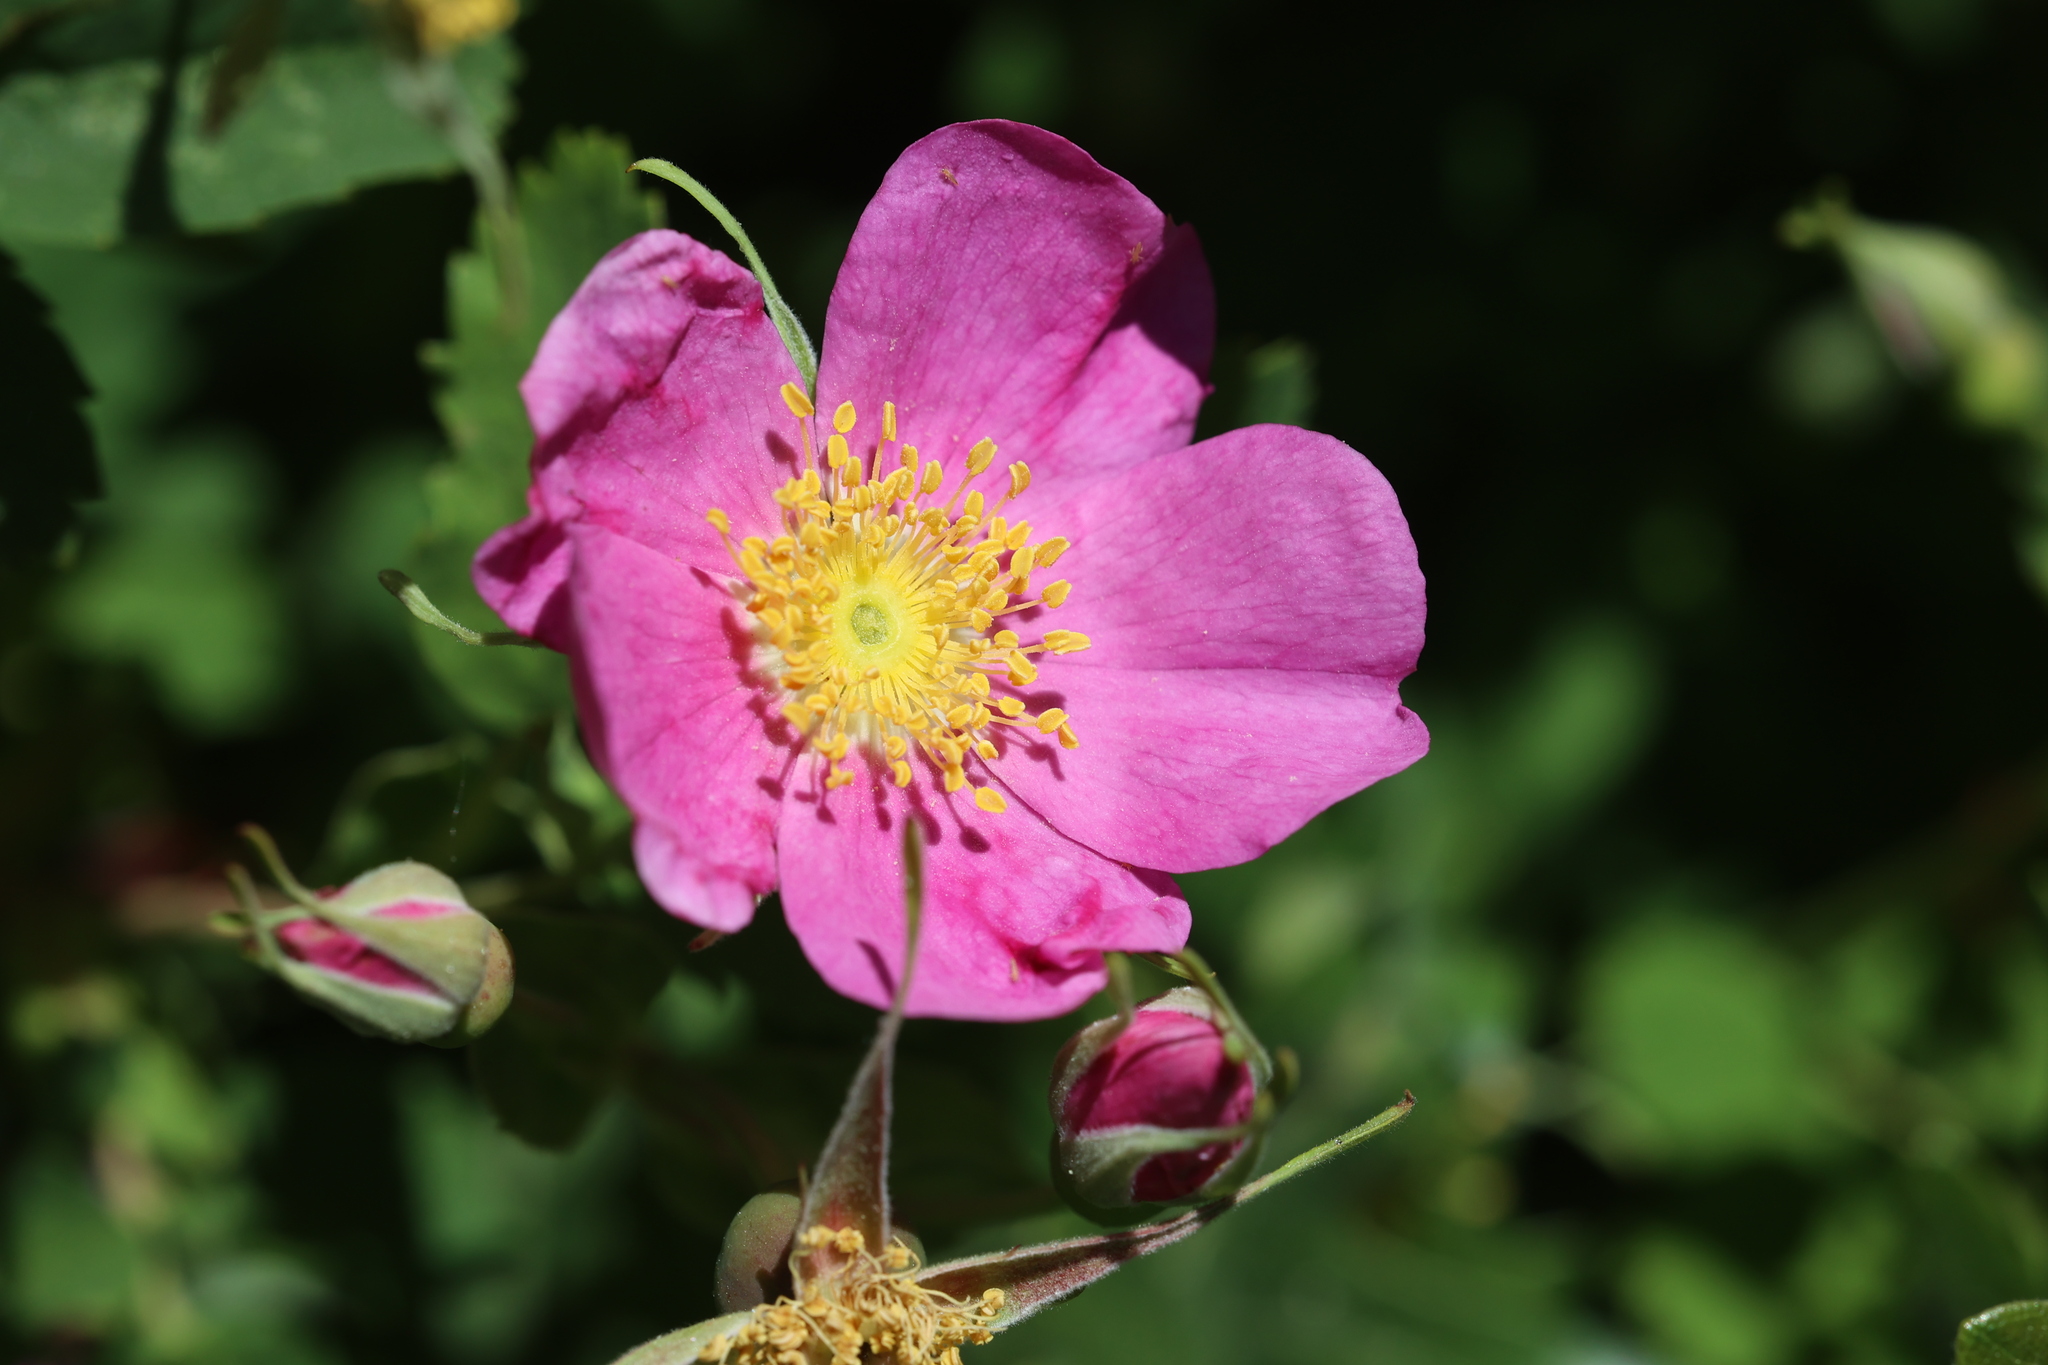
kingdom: Plantae
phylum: Tracheophyta
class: Magnoliopsida
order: Rosales
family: Rosaceae
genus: Rosa
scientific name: Rosa woodsii
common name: Woods's rose
